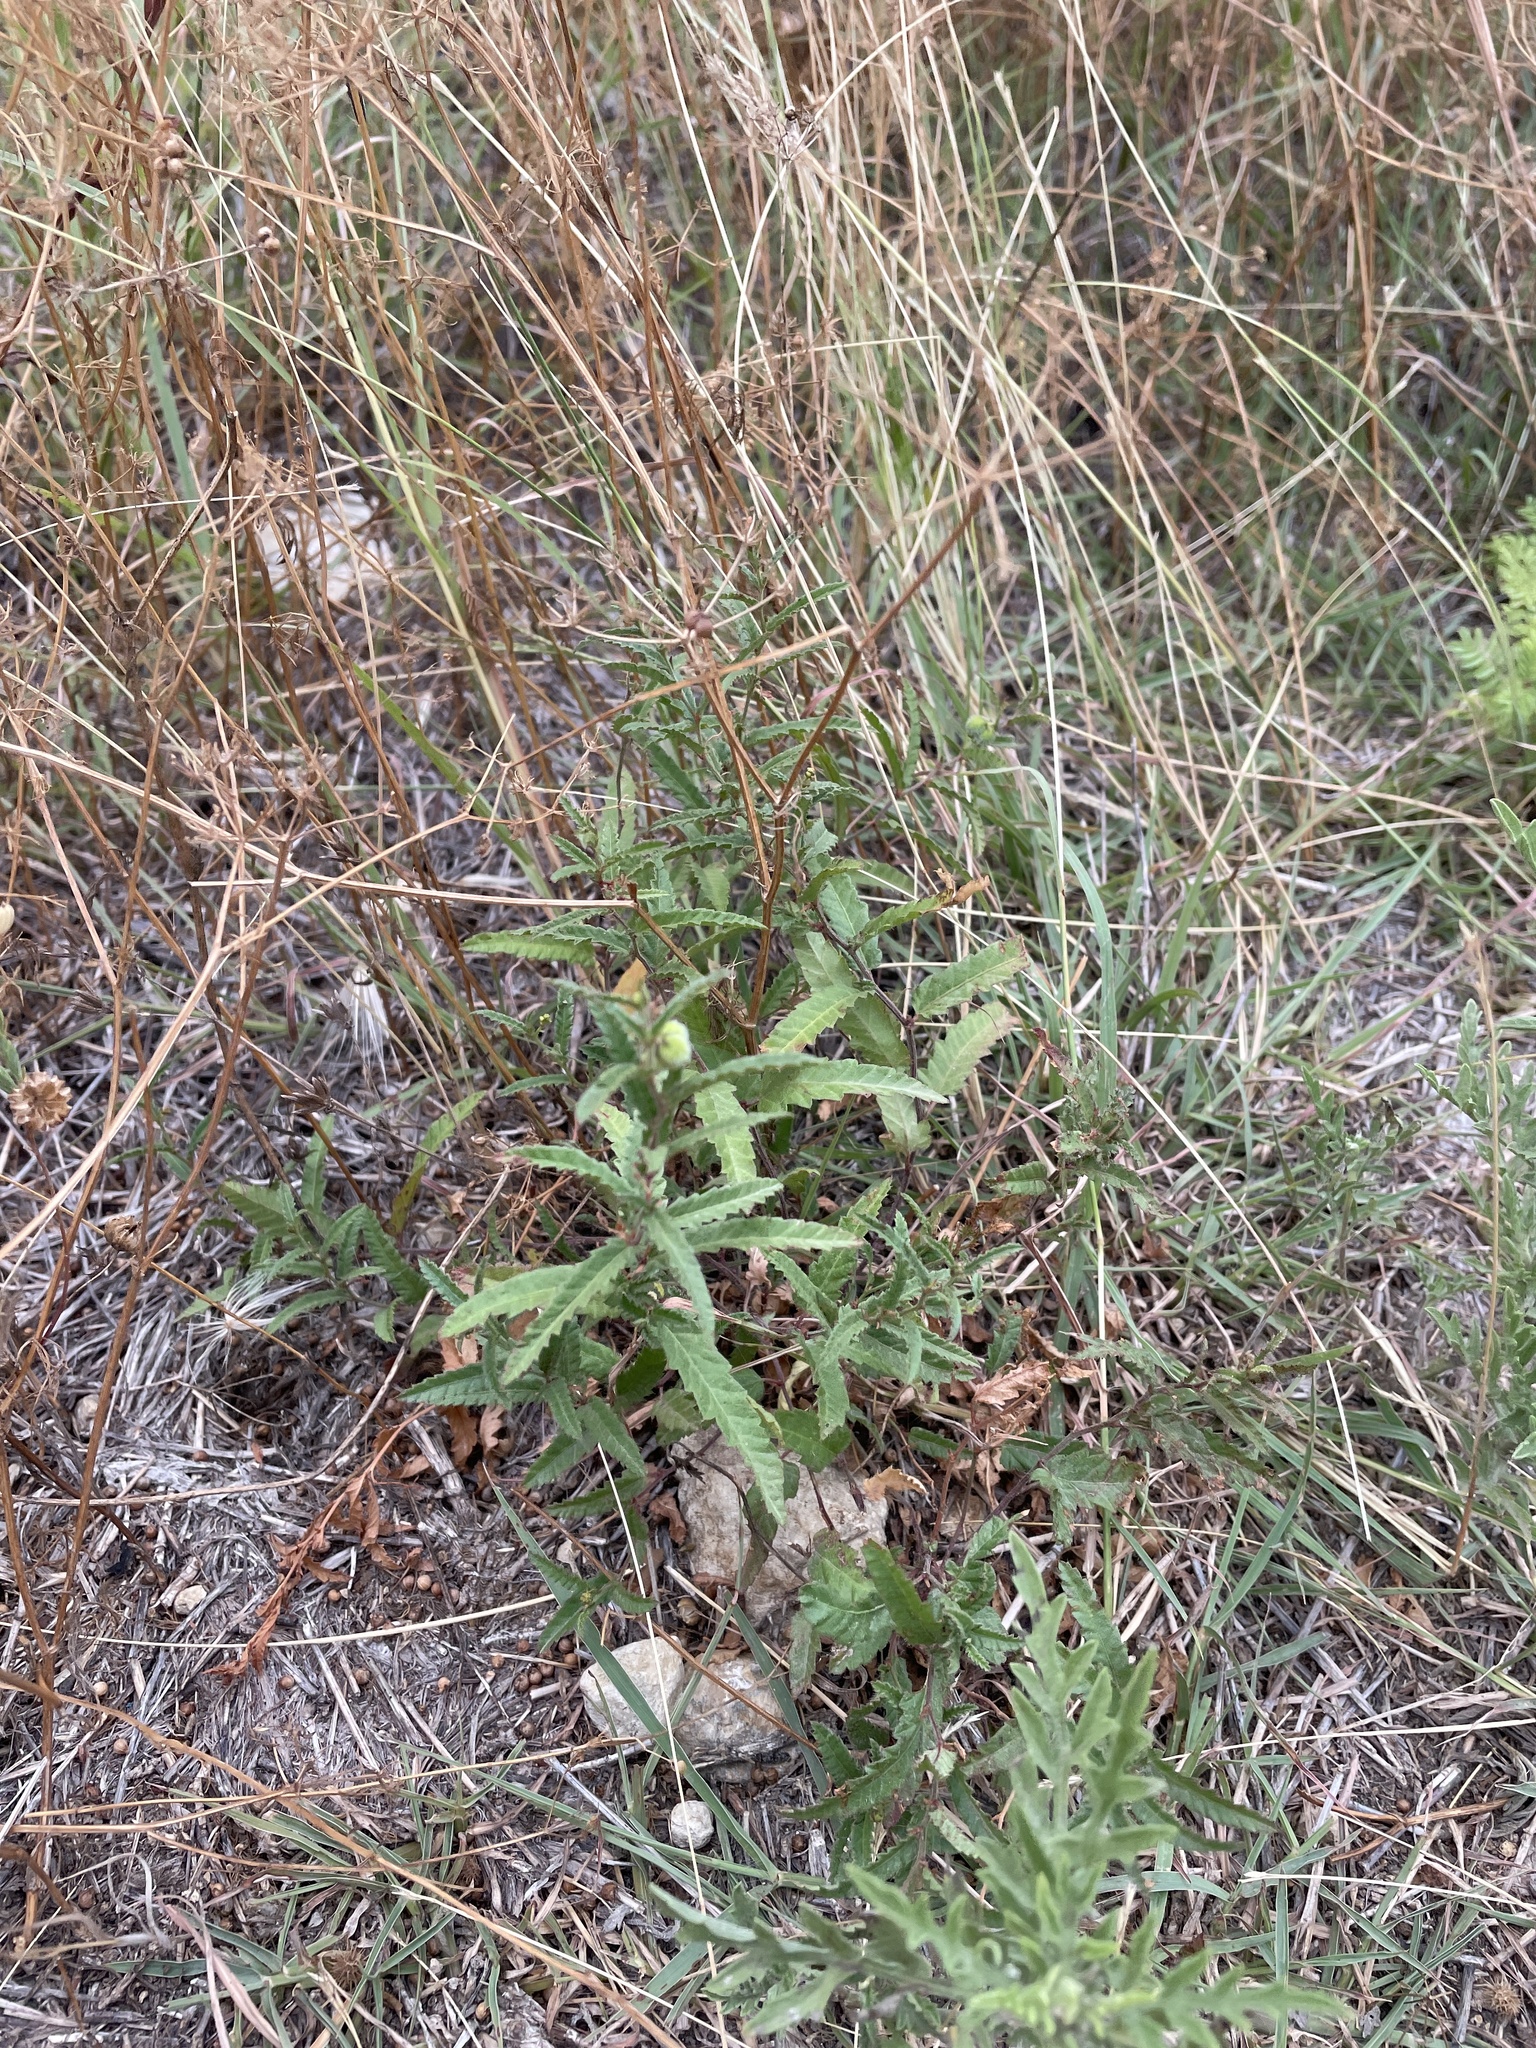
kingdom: Plantae
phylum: Tracheophyta
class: Magnoliopsida
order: Malpighiales
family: Euphorbiaceae
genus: Tragia
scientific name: Tragia ramosa
